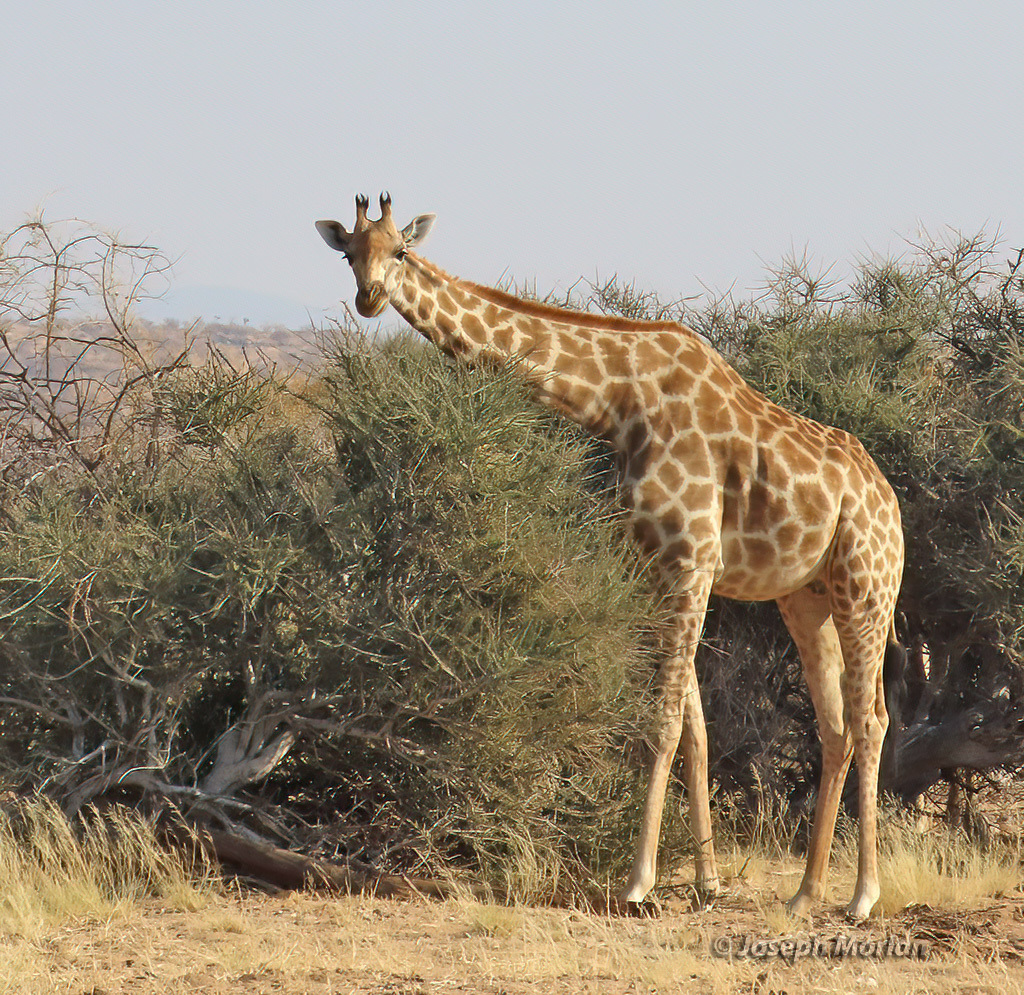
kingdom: Animalia
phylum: Chordata
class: Mammalia
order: Artiodactyla
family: Giraffidae
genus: Giraffa
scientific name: Giraffa giraffa
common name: Southern giraffe
